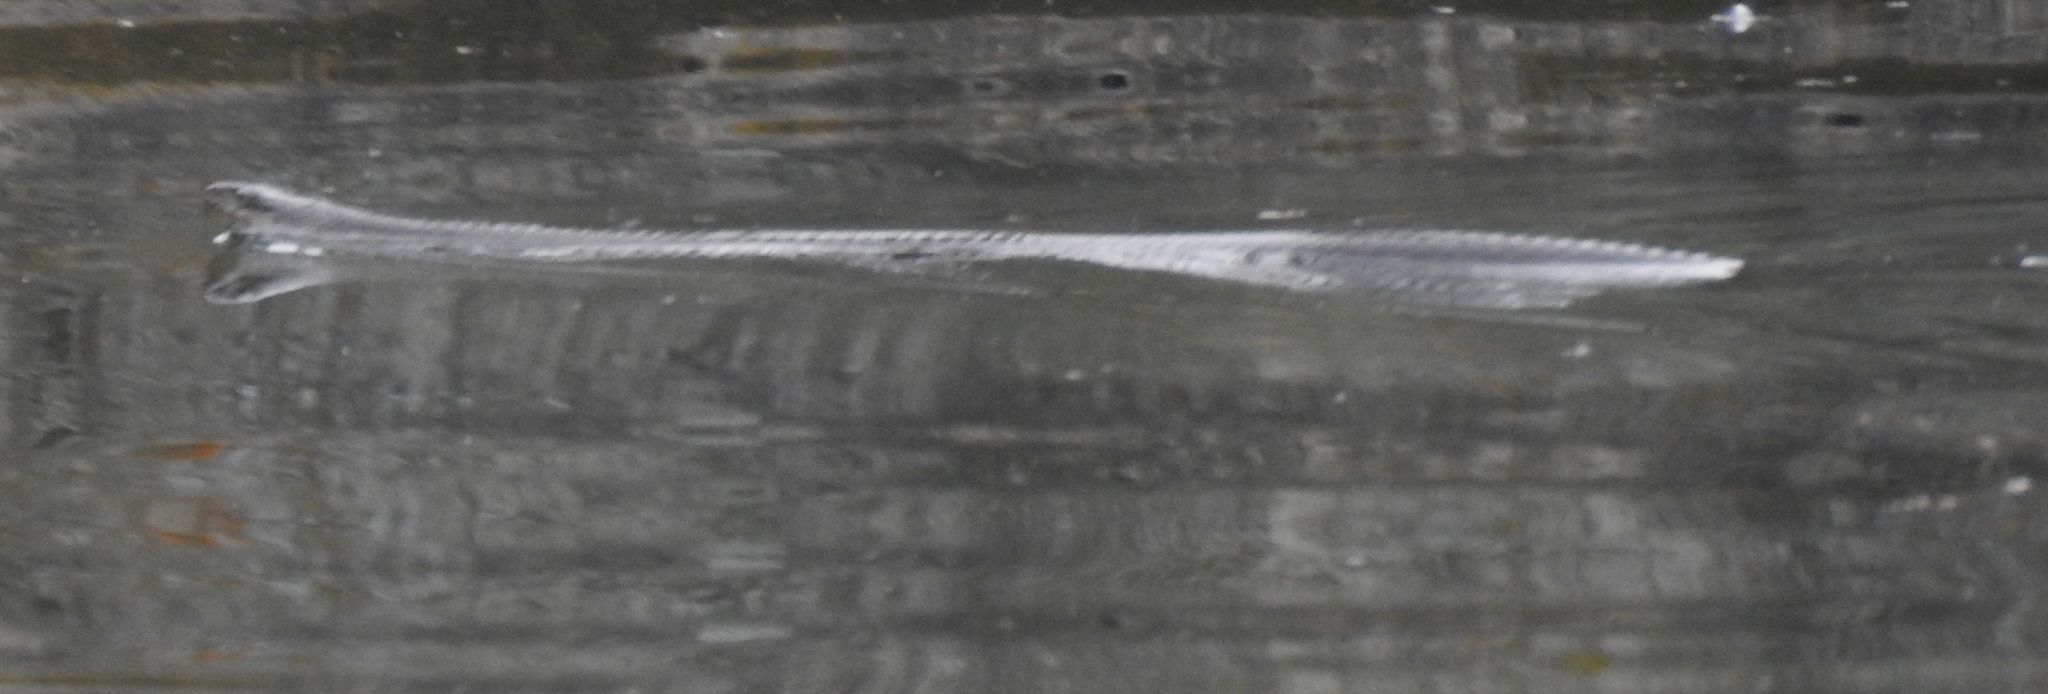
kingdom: Animalia
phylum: Chordata
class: Squamata
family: Colubridae
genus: Nerodia
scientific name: Nerodia sipedon
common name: Northern water snake
